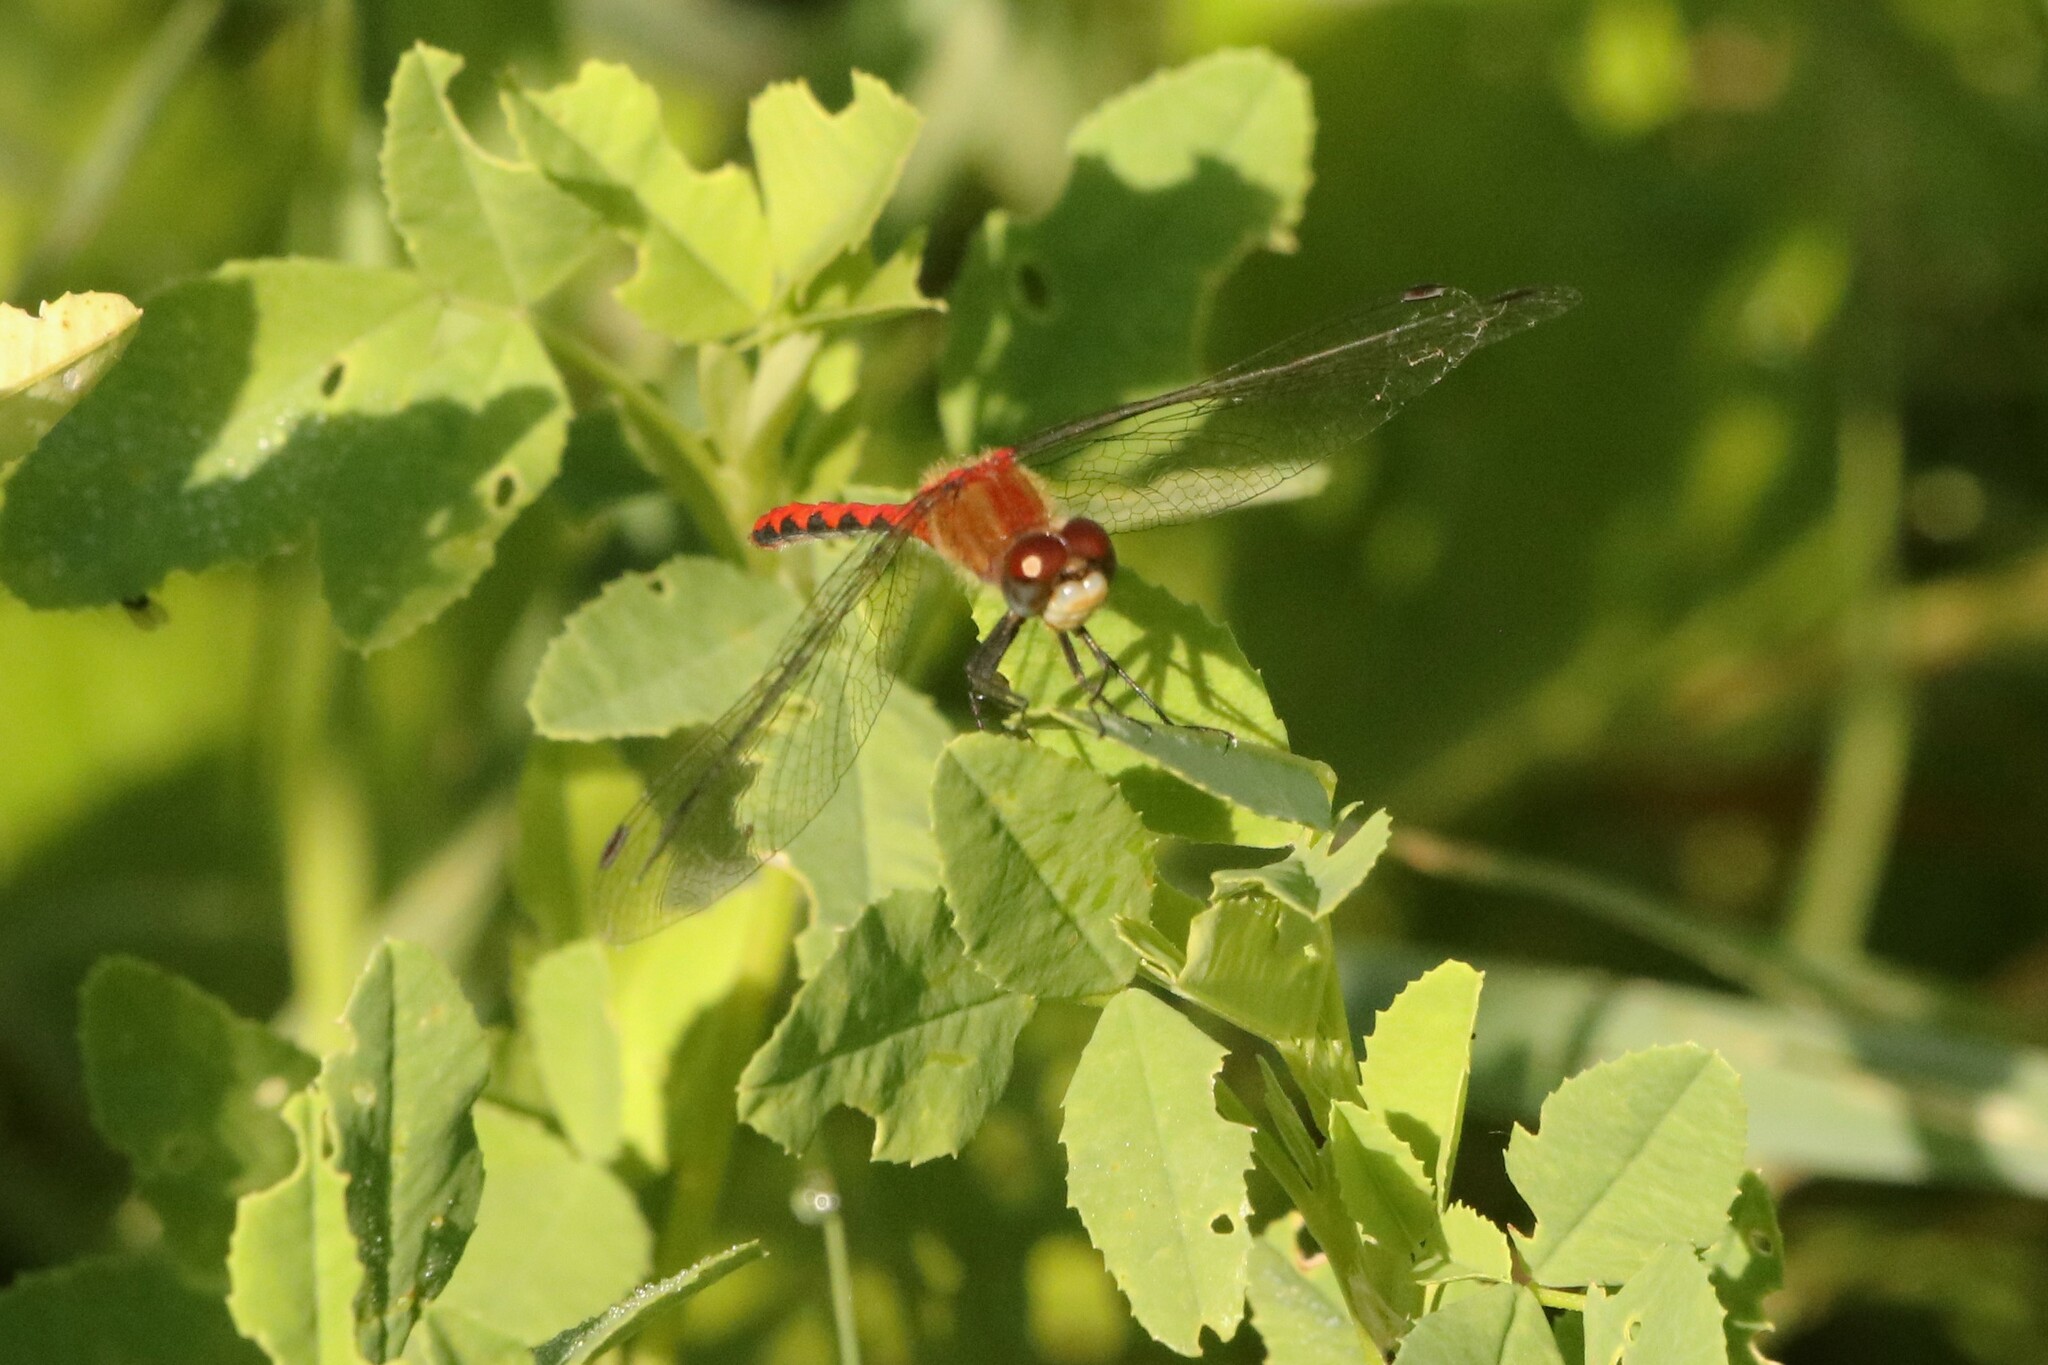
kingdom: Animalia
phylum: Arthropoda
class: Insecta
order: Odonata
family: Libellulidae
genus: Sympetrum
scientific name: Sympetrum obtrusum
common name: White-faced meadowhawk
